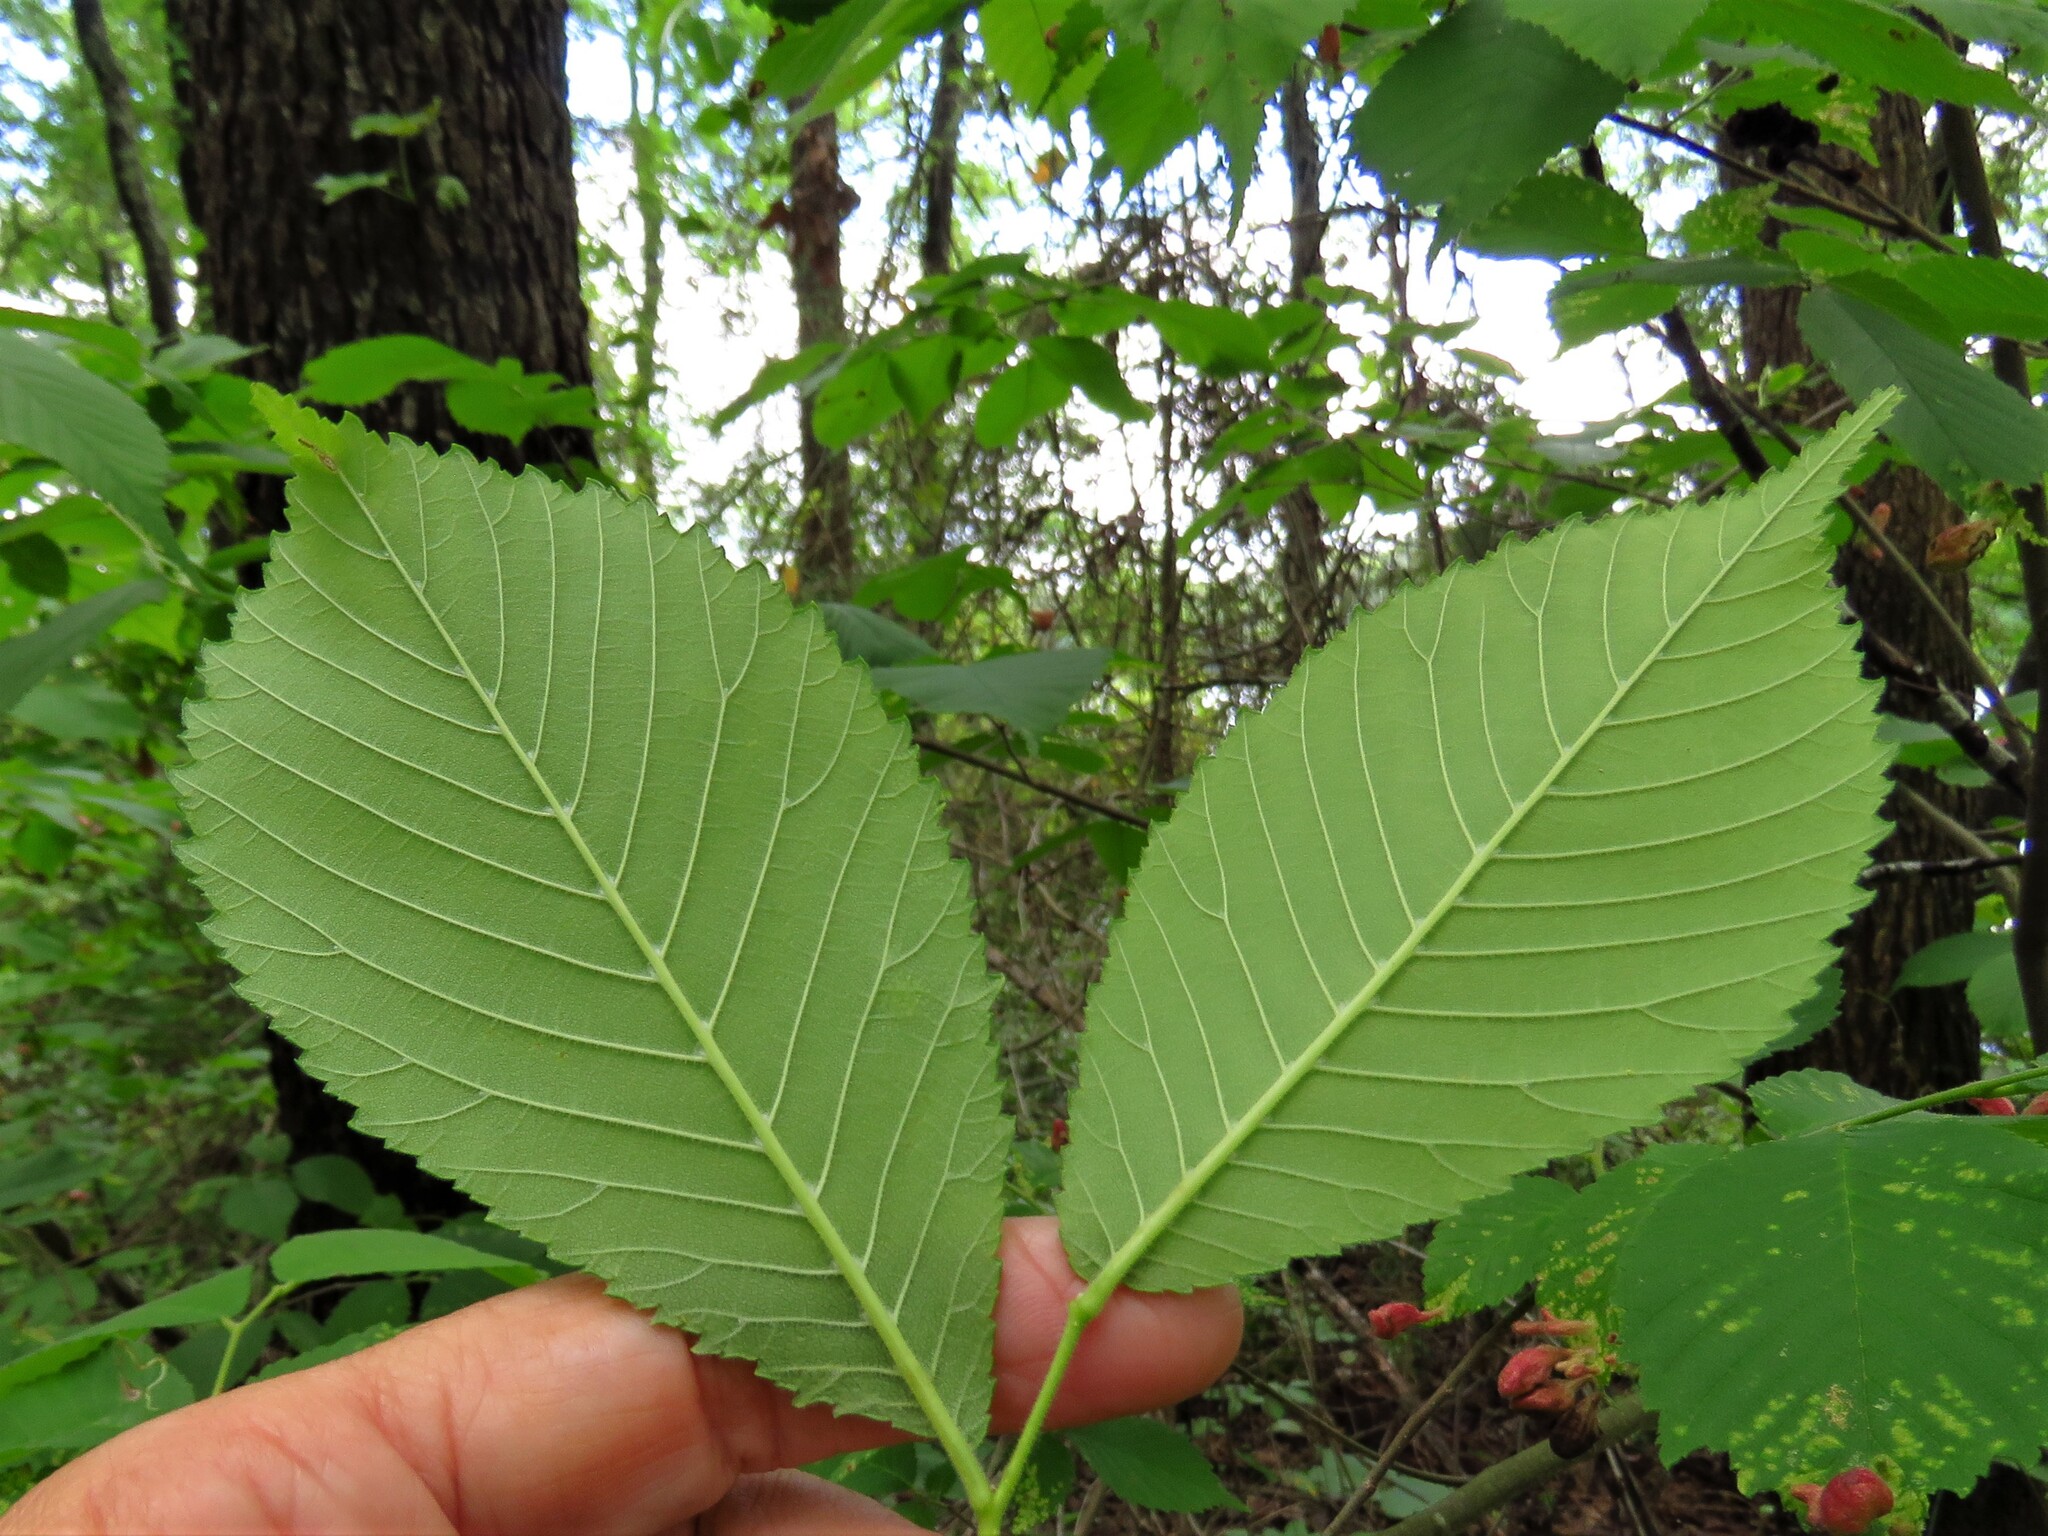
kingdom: Plantae
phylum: Tracheophyta
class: Magnoliopsida
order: Rosales
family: Ulmaceae
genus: Ulmus
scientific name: Ulmus americana
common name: American elm
